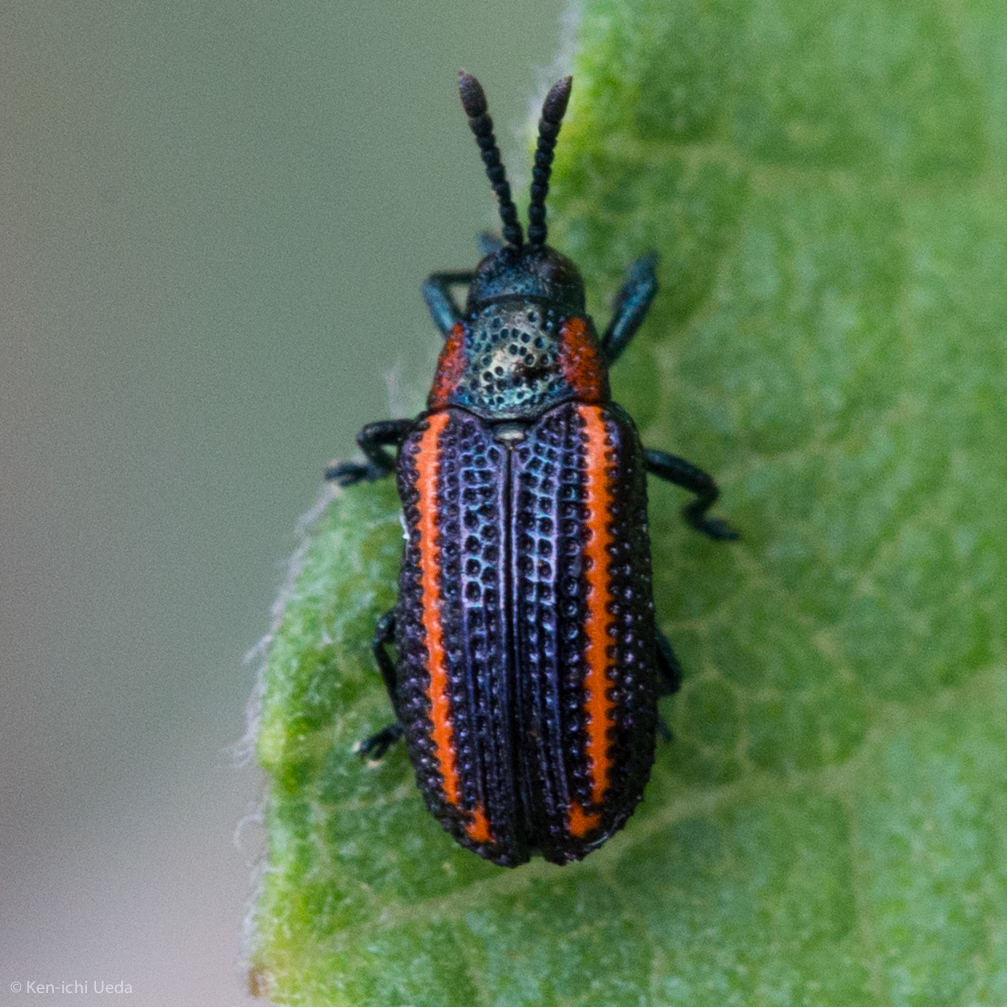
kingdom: Animalia
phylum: Arthropoda
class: Insecta
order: Coleoptera
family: Chrysomelidae
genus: Microrhopala
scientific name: Microrhopala rubrolineata
